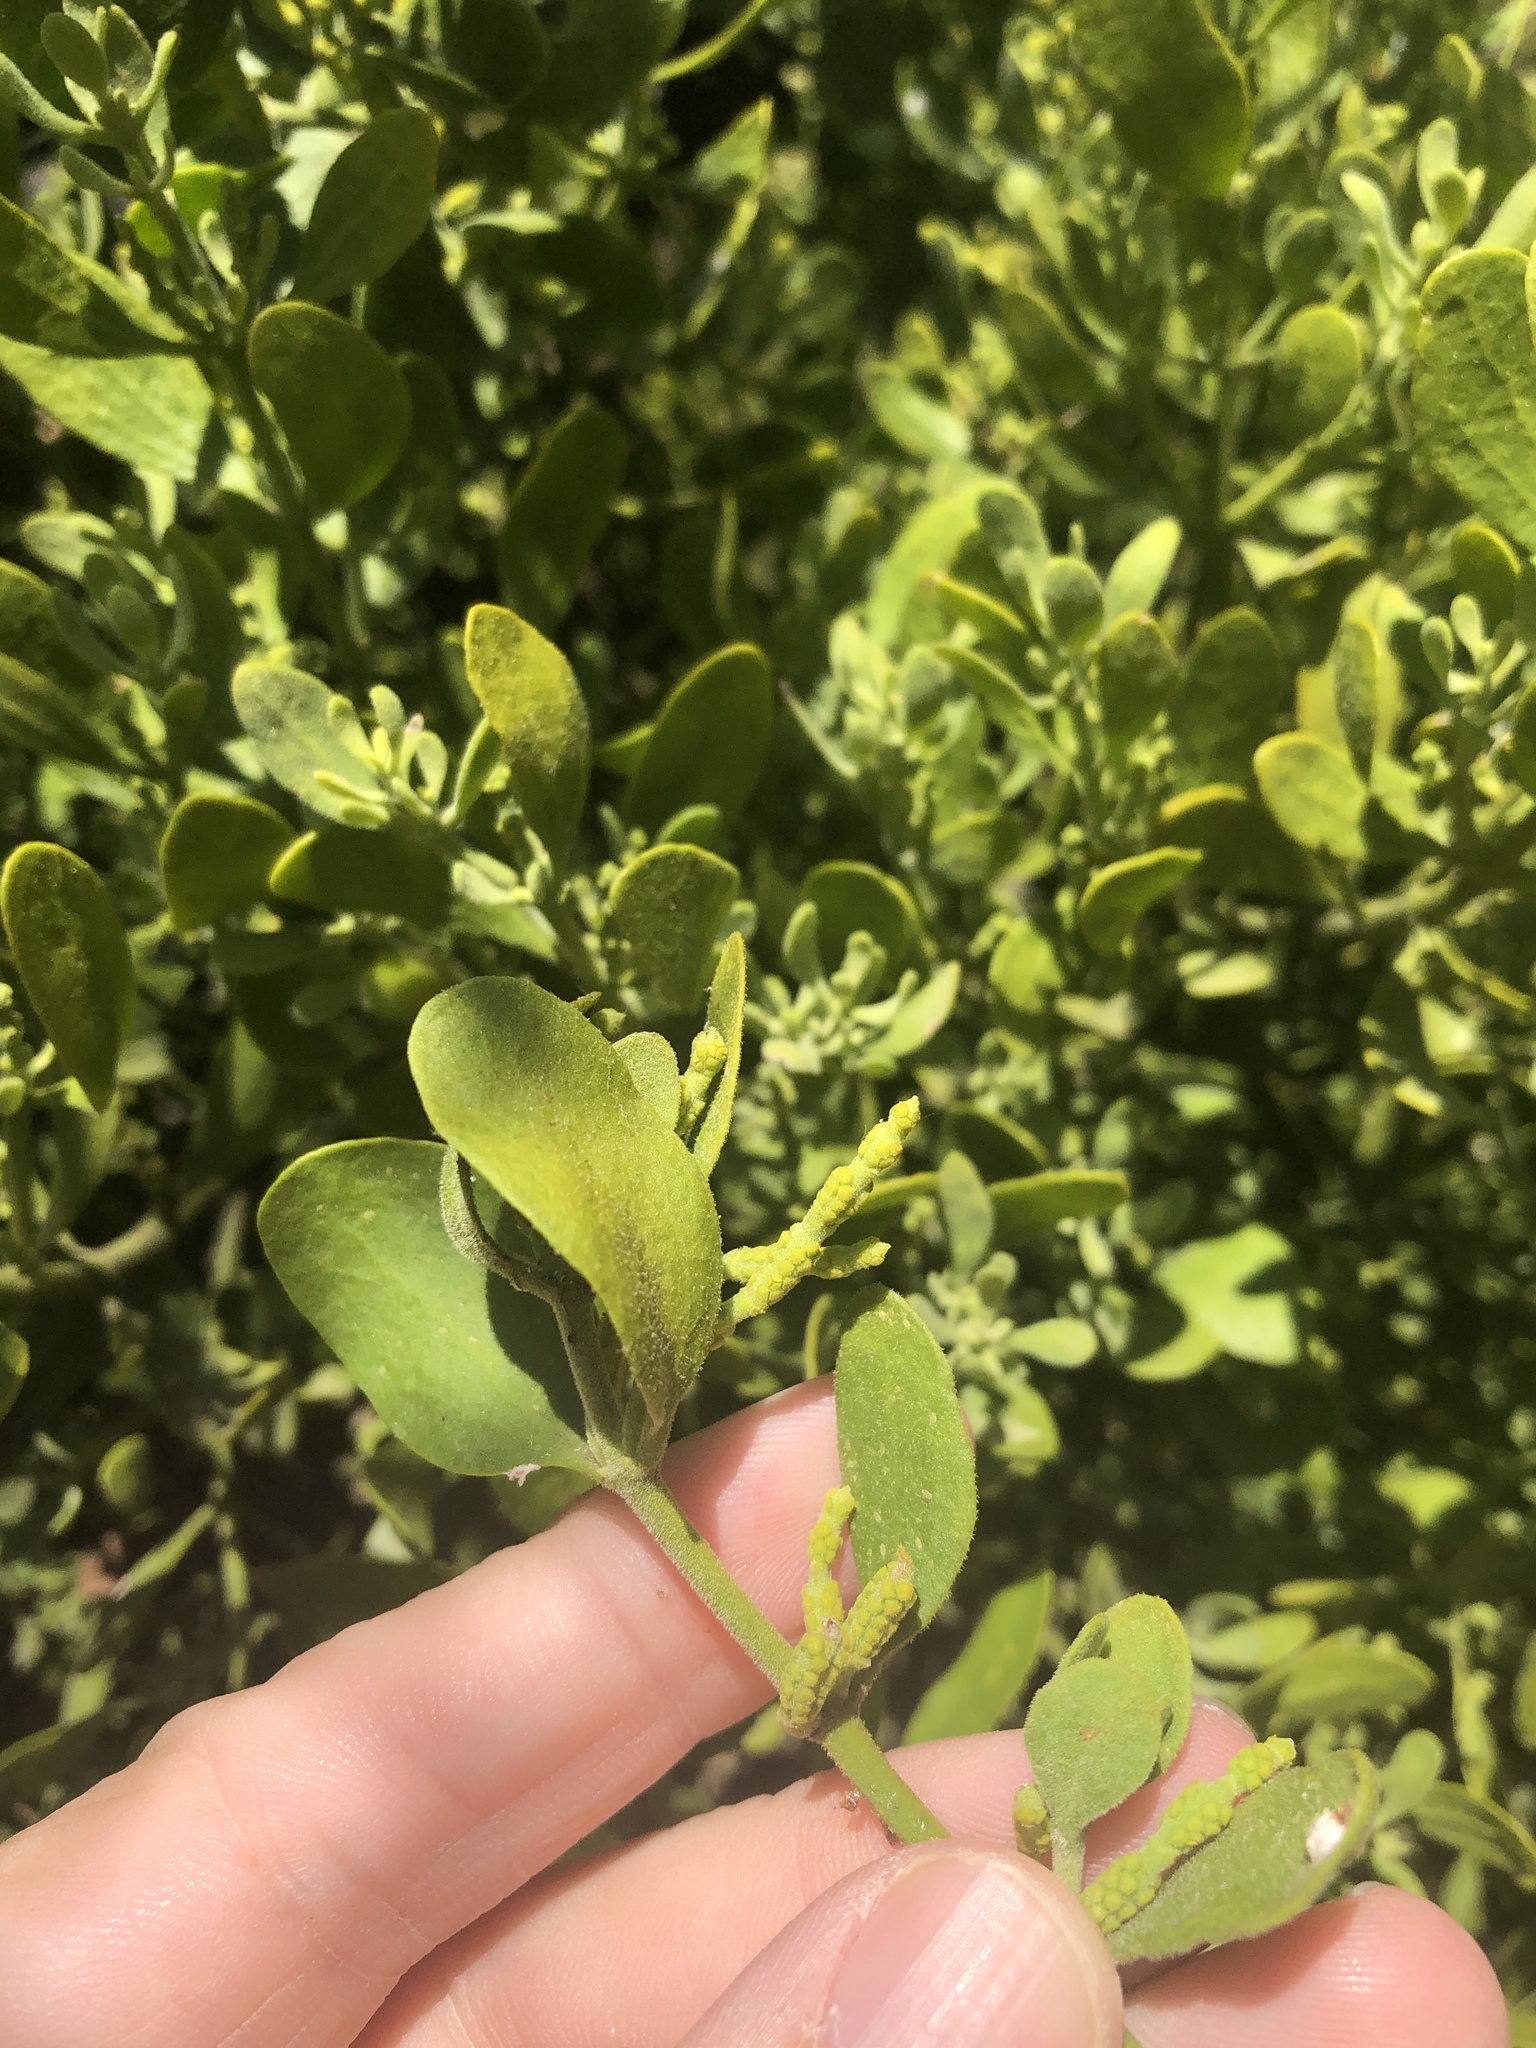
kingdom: Plantae
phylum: Tracheophyta
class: Magnoliopsida
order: Santalales
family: Viscaceae
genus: Phoradendron
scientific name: Phoradendron leucarpum
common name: Pacific mistletoe
